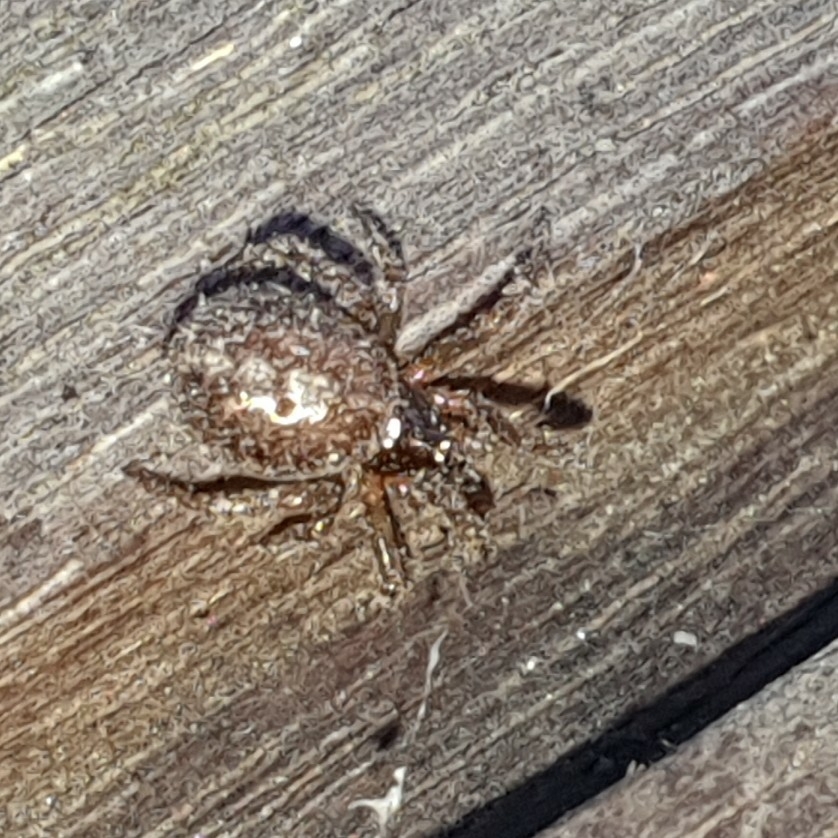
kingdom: Animalia
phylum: Arthropoda
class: Arachnida
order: Araneae
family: Theridiidae
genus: Steatoda
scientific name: Steatoda bipunctata
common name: False widow
